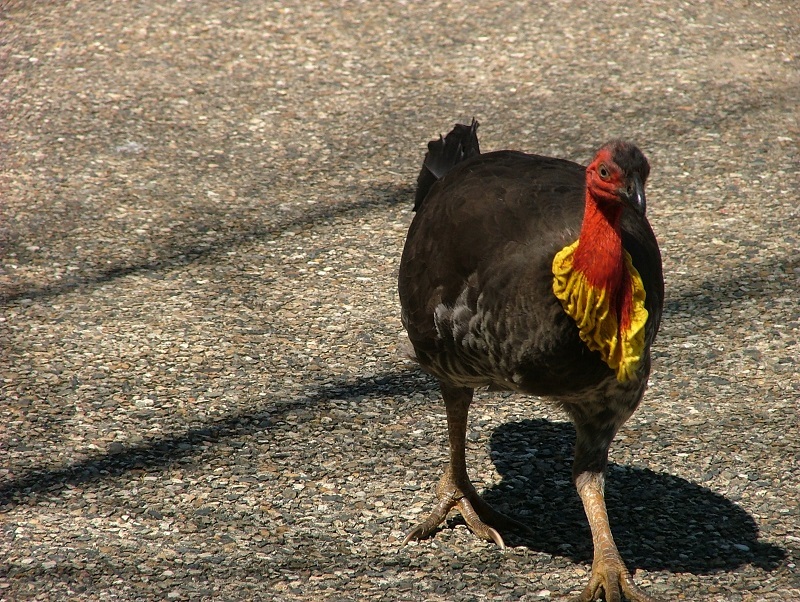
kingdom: Animalia
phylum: Chordata
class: Aves
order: Galliformes
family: Megapodiidae
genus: Alectura
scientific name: Alectura lathami
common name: Australian brushturkey
